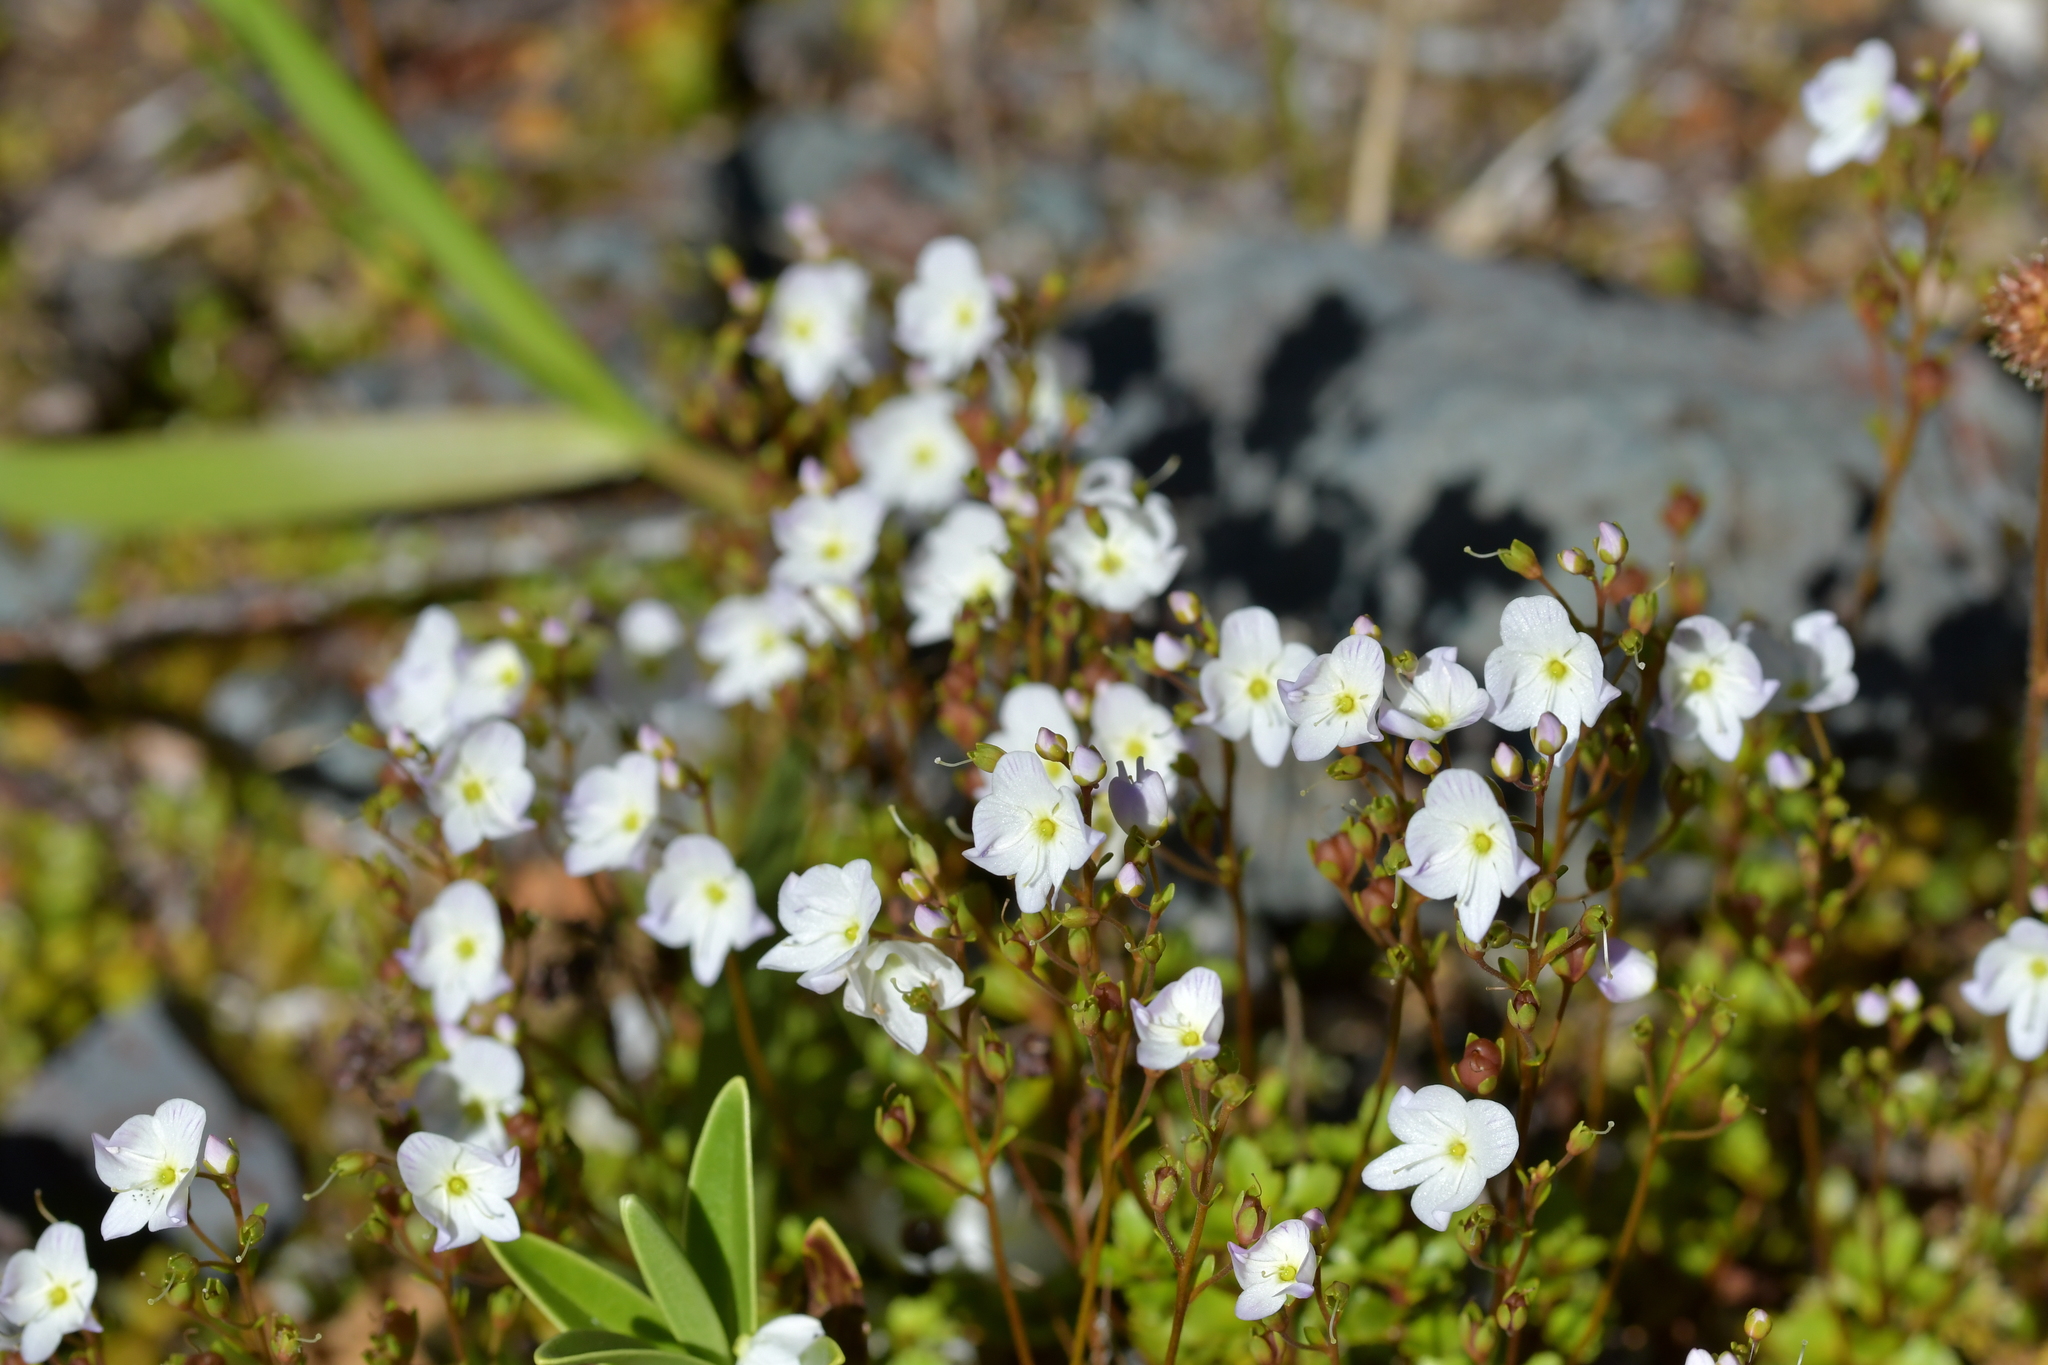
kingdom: Plantae
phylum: Tracheophyta
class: Magnoliopsida
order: Lamiales
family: Plantaginaceae
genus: Veronica
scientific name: Veronica lyallii
